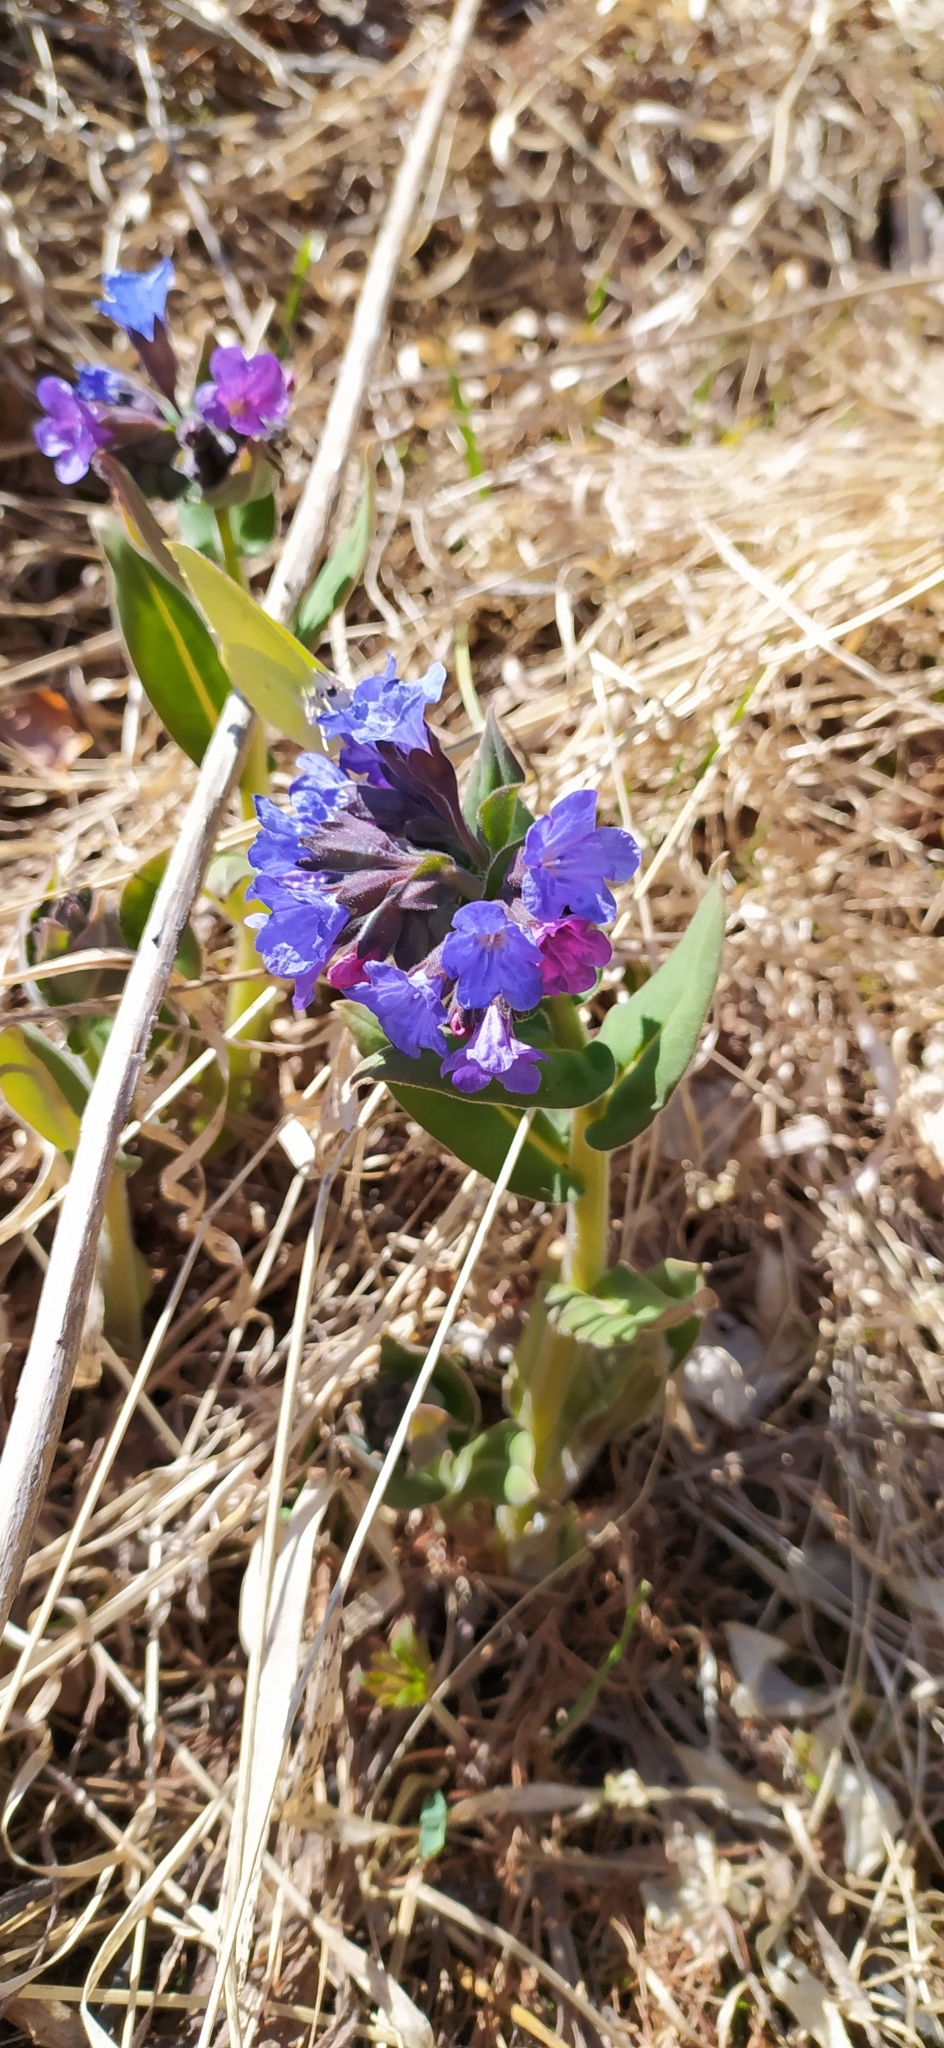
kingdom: Plantae
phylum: Tracheophyta
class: Magnoliopsida
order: Boraginales
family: Boraginaceae
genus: Pulmonaria
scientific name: Pulmonaria mollis
